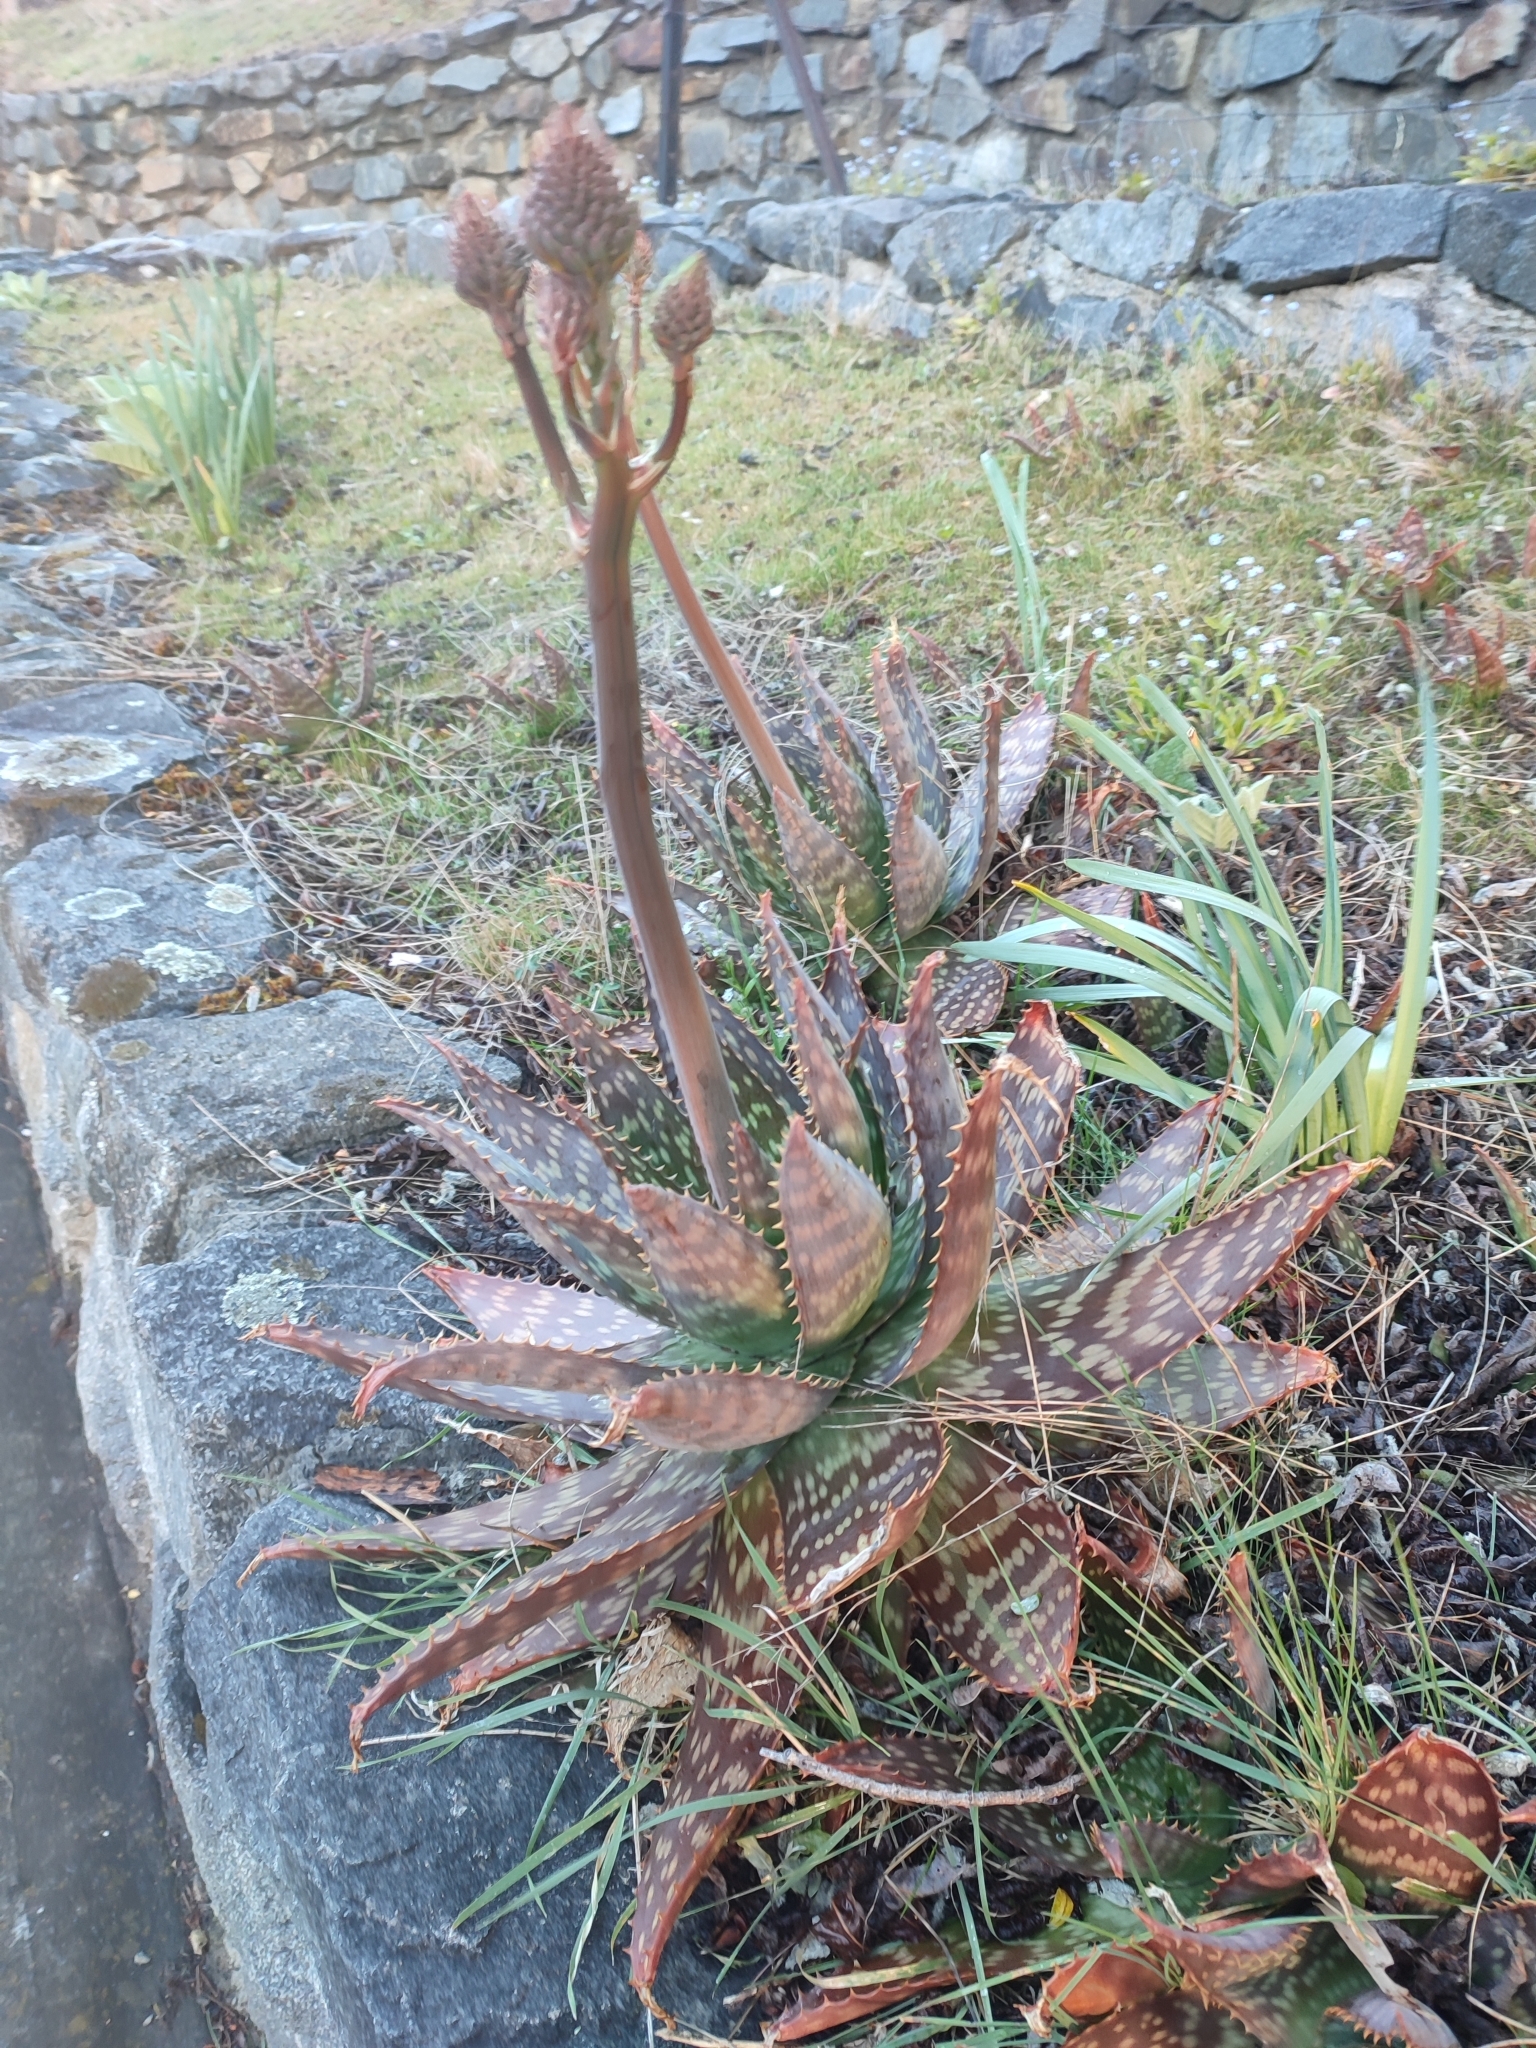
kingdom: Plantae
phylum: Tracheophyta
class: Liliopsida
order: Asparagales
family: Asphodelaceae
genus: Aloe
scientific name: Aloe maculata
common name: Broadleaf aloe
